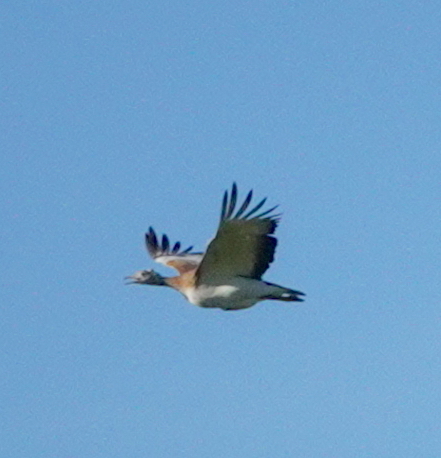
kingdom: Animalia
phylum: Chordata
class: Aves
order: Otidiformes
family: Otididae
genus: Otis
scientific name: Otis tarda
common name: Great bustard
